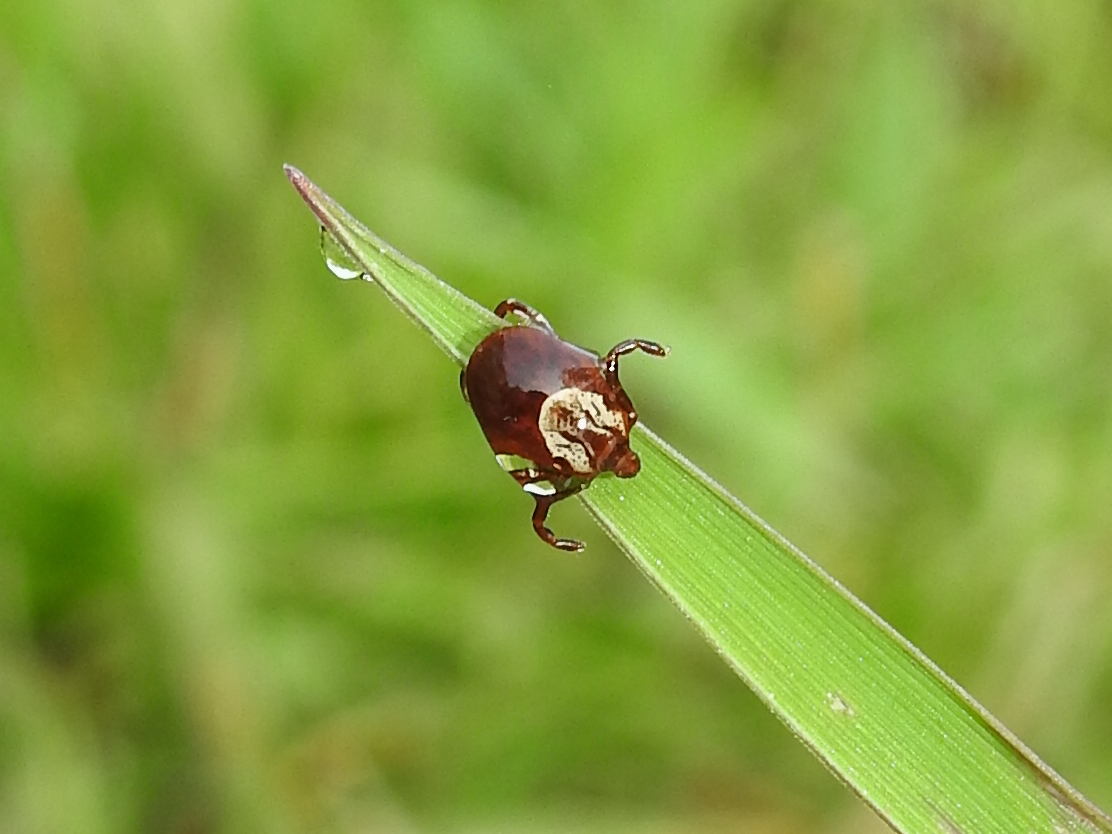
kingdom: Animalia
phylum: Arthropoda
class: Arachnida
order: Ixodida
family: Ixodidae
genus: Dermacentor
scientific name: Dermacentor variabilis
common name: American dog tick
